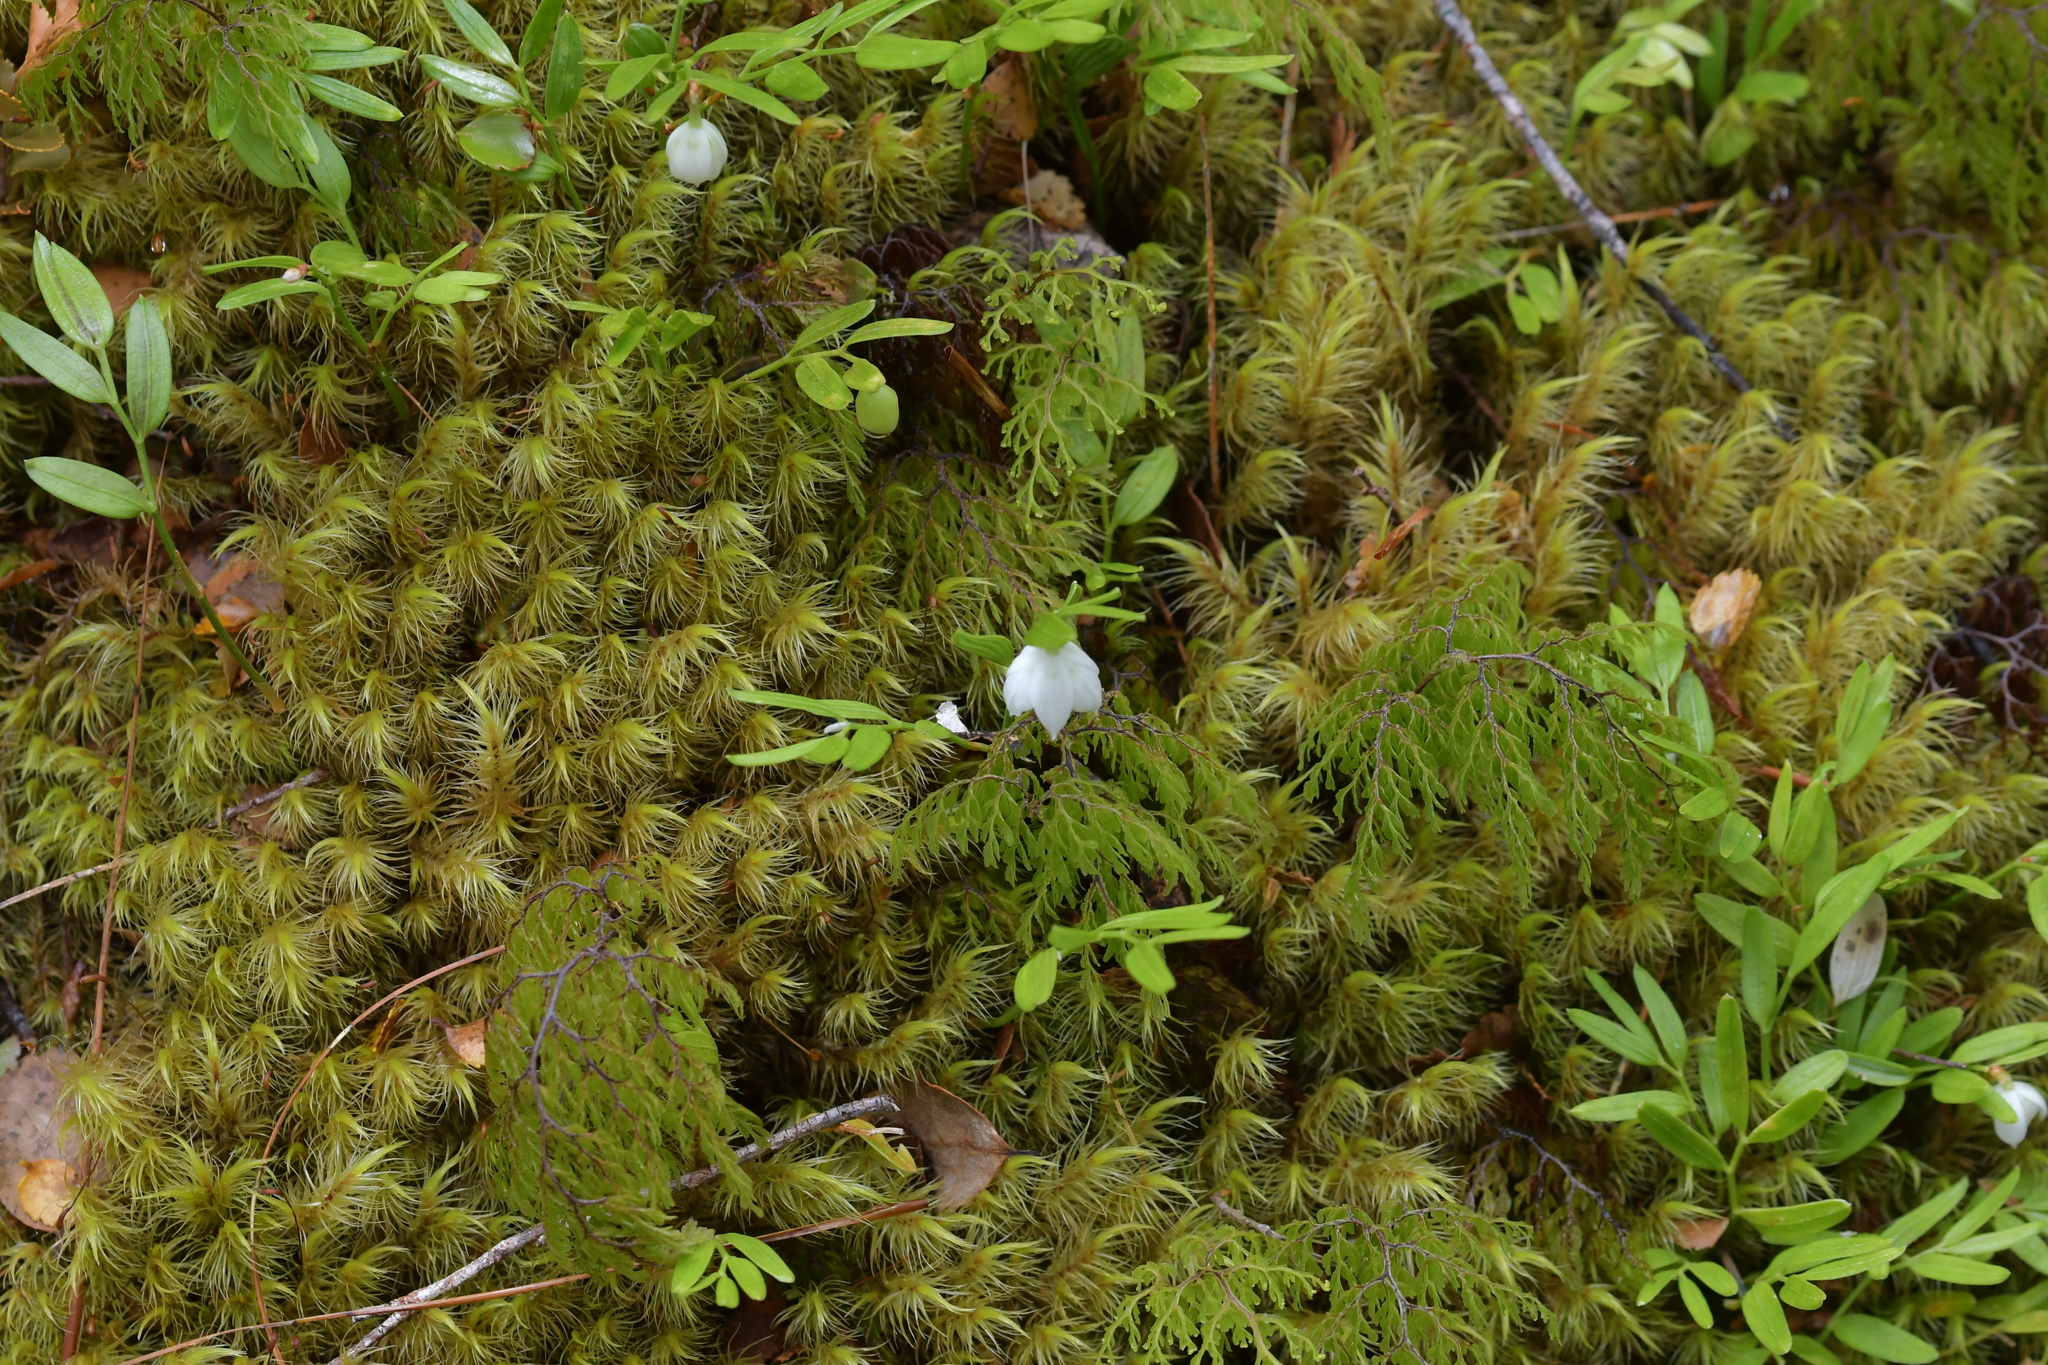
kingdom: Plantae
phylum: Tracheophyta
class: Liliopsida
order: Liliales
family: Alstroemeriaceae
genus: Luzuriaga
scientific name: Luzuriaga parviflora
